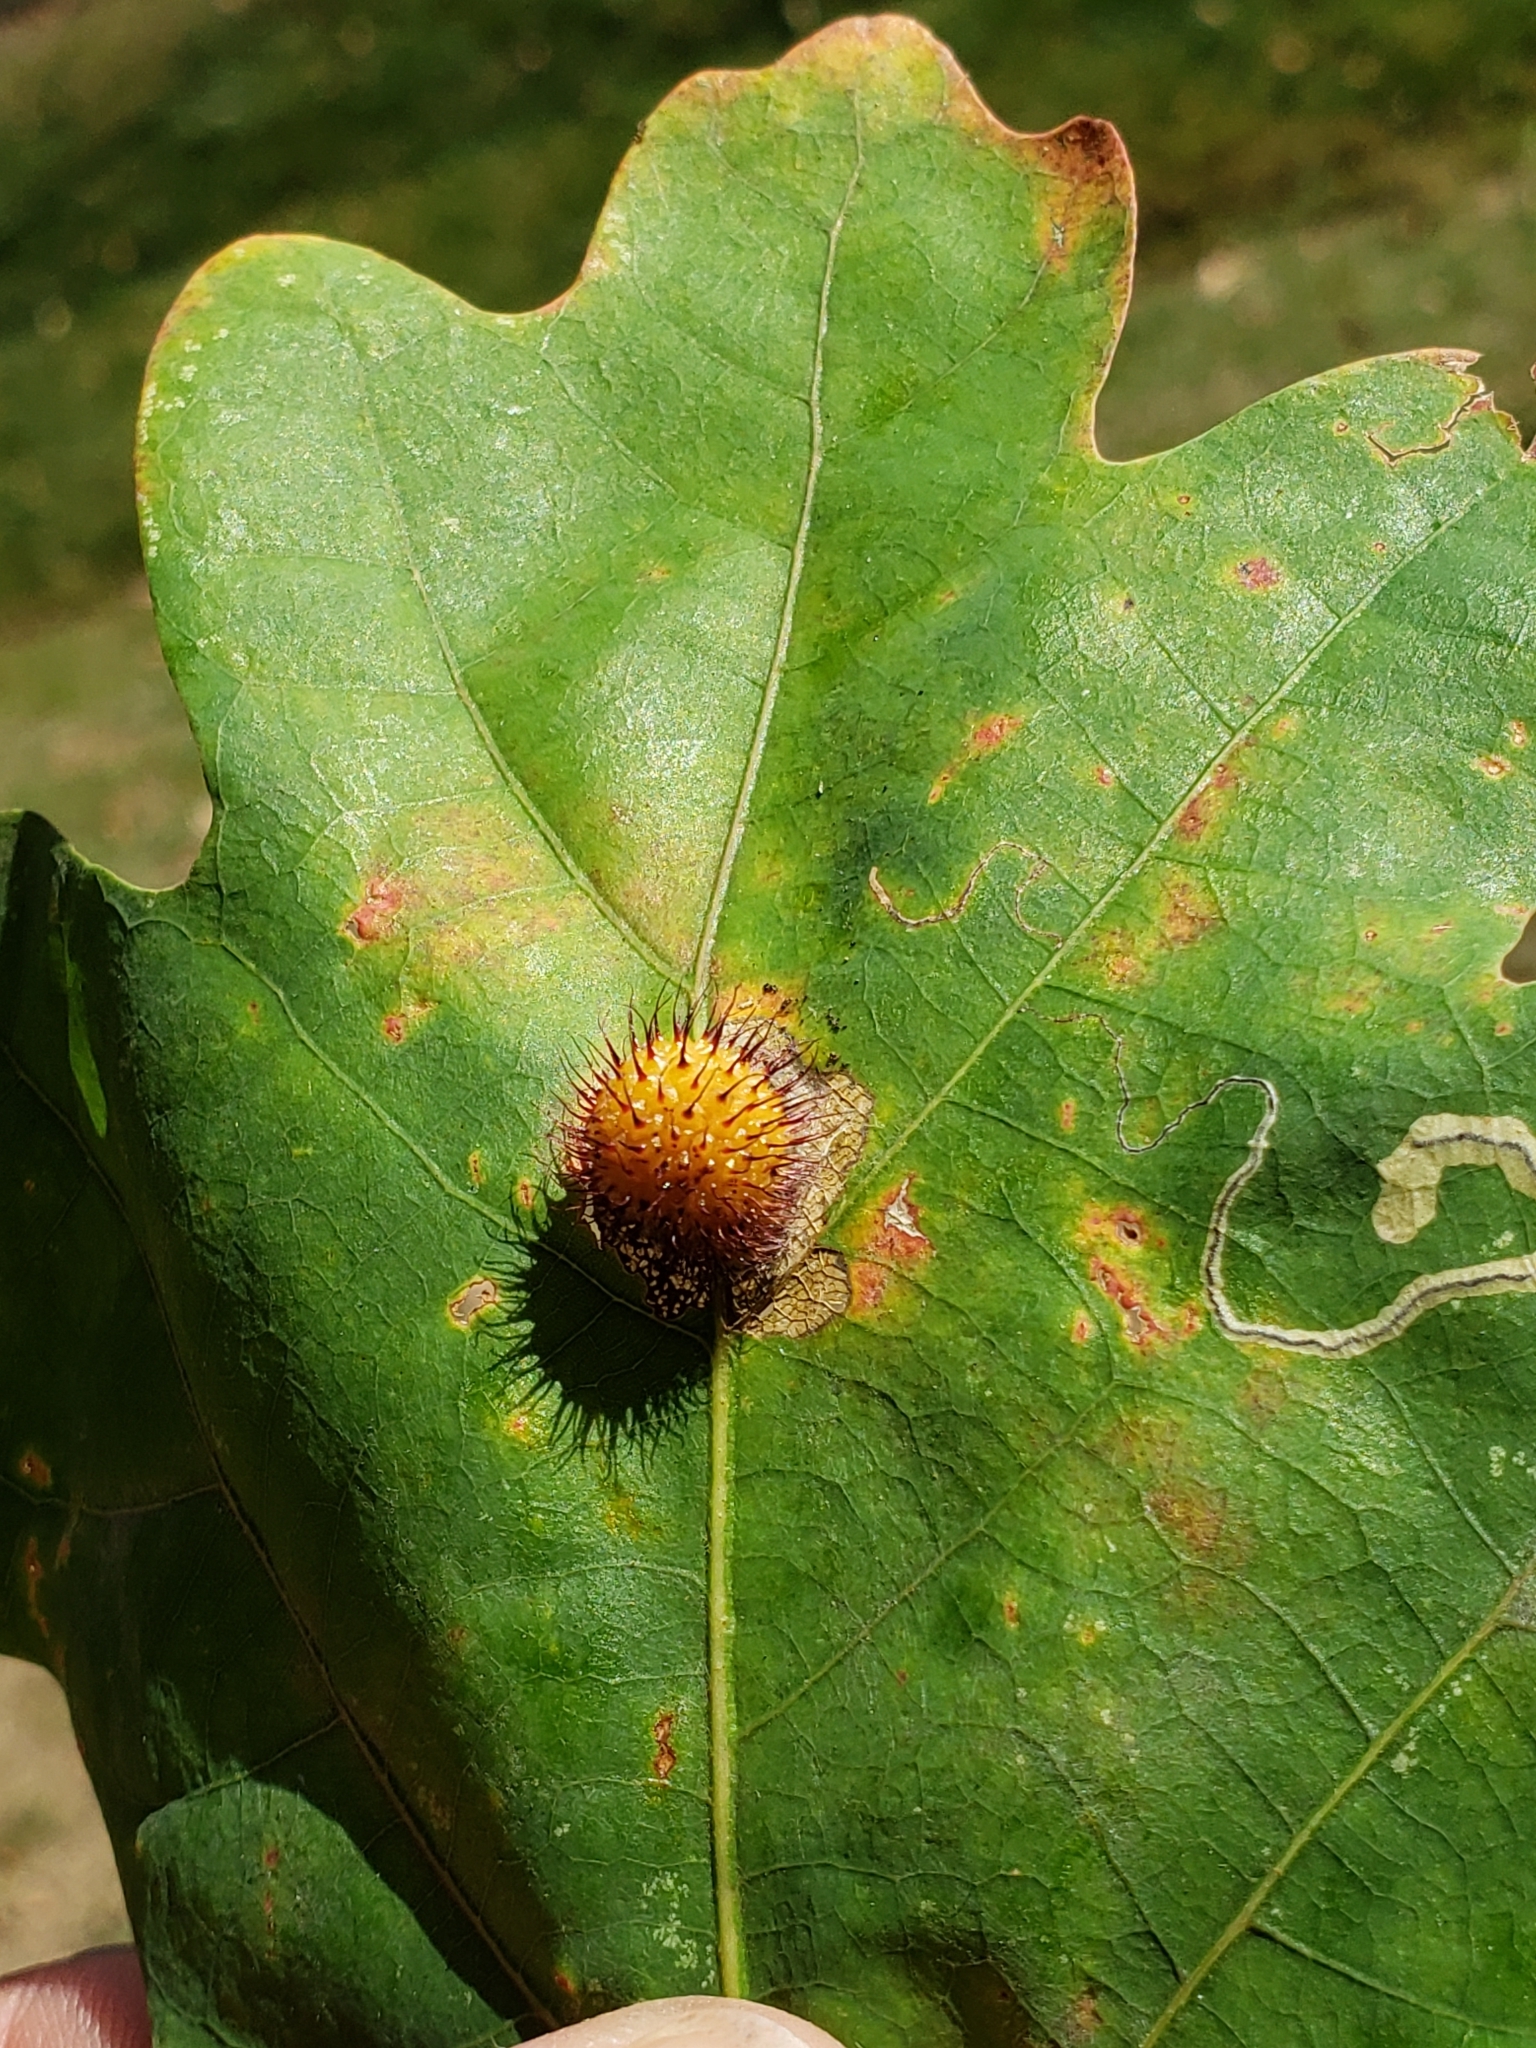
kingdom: Animalia
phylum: Arthropoda
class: Insecta
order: Hymenoptera
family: Cynipidae
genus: Acraspis
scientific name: Acraspis erinacei
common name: Hedgehog gall wasp
